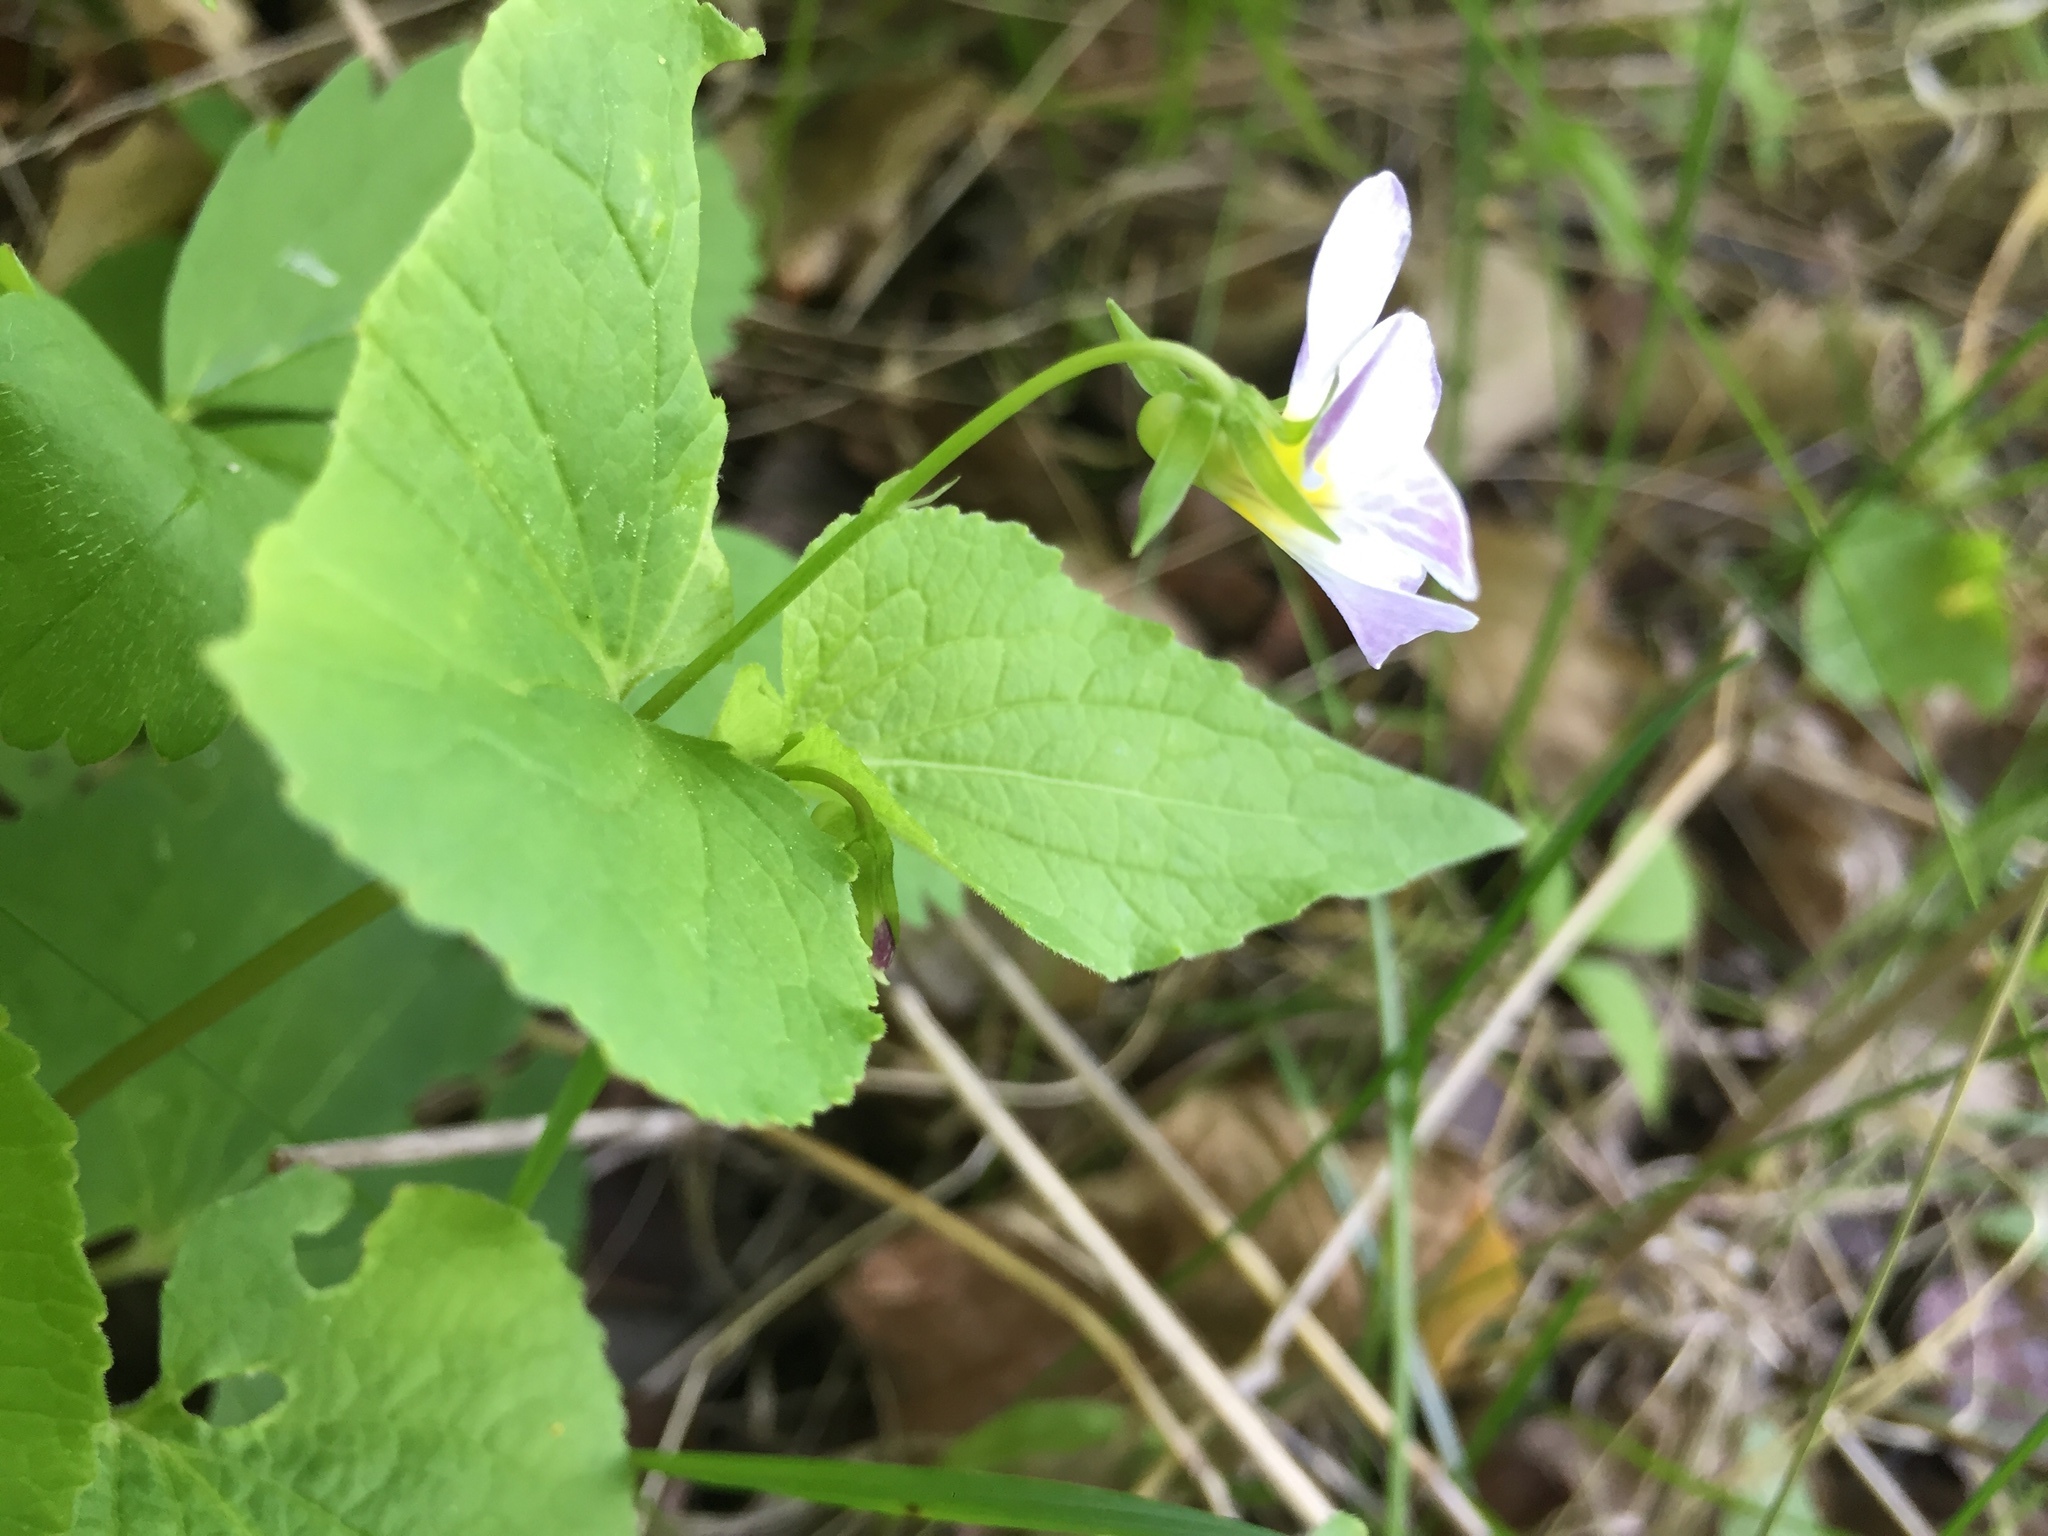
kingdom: Plantae
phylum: Tracheophyta
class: Magnoliopsida
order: Malpighiales
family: Violaceae
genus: Viola
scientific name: Viola canadensis
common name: Canada violet
